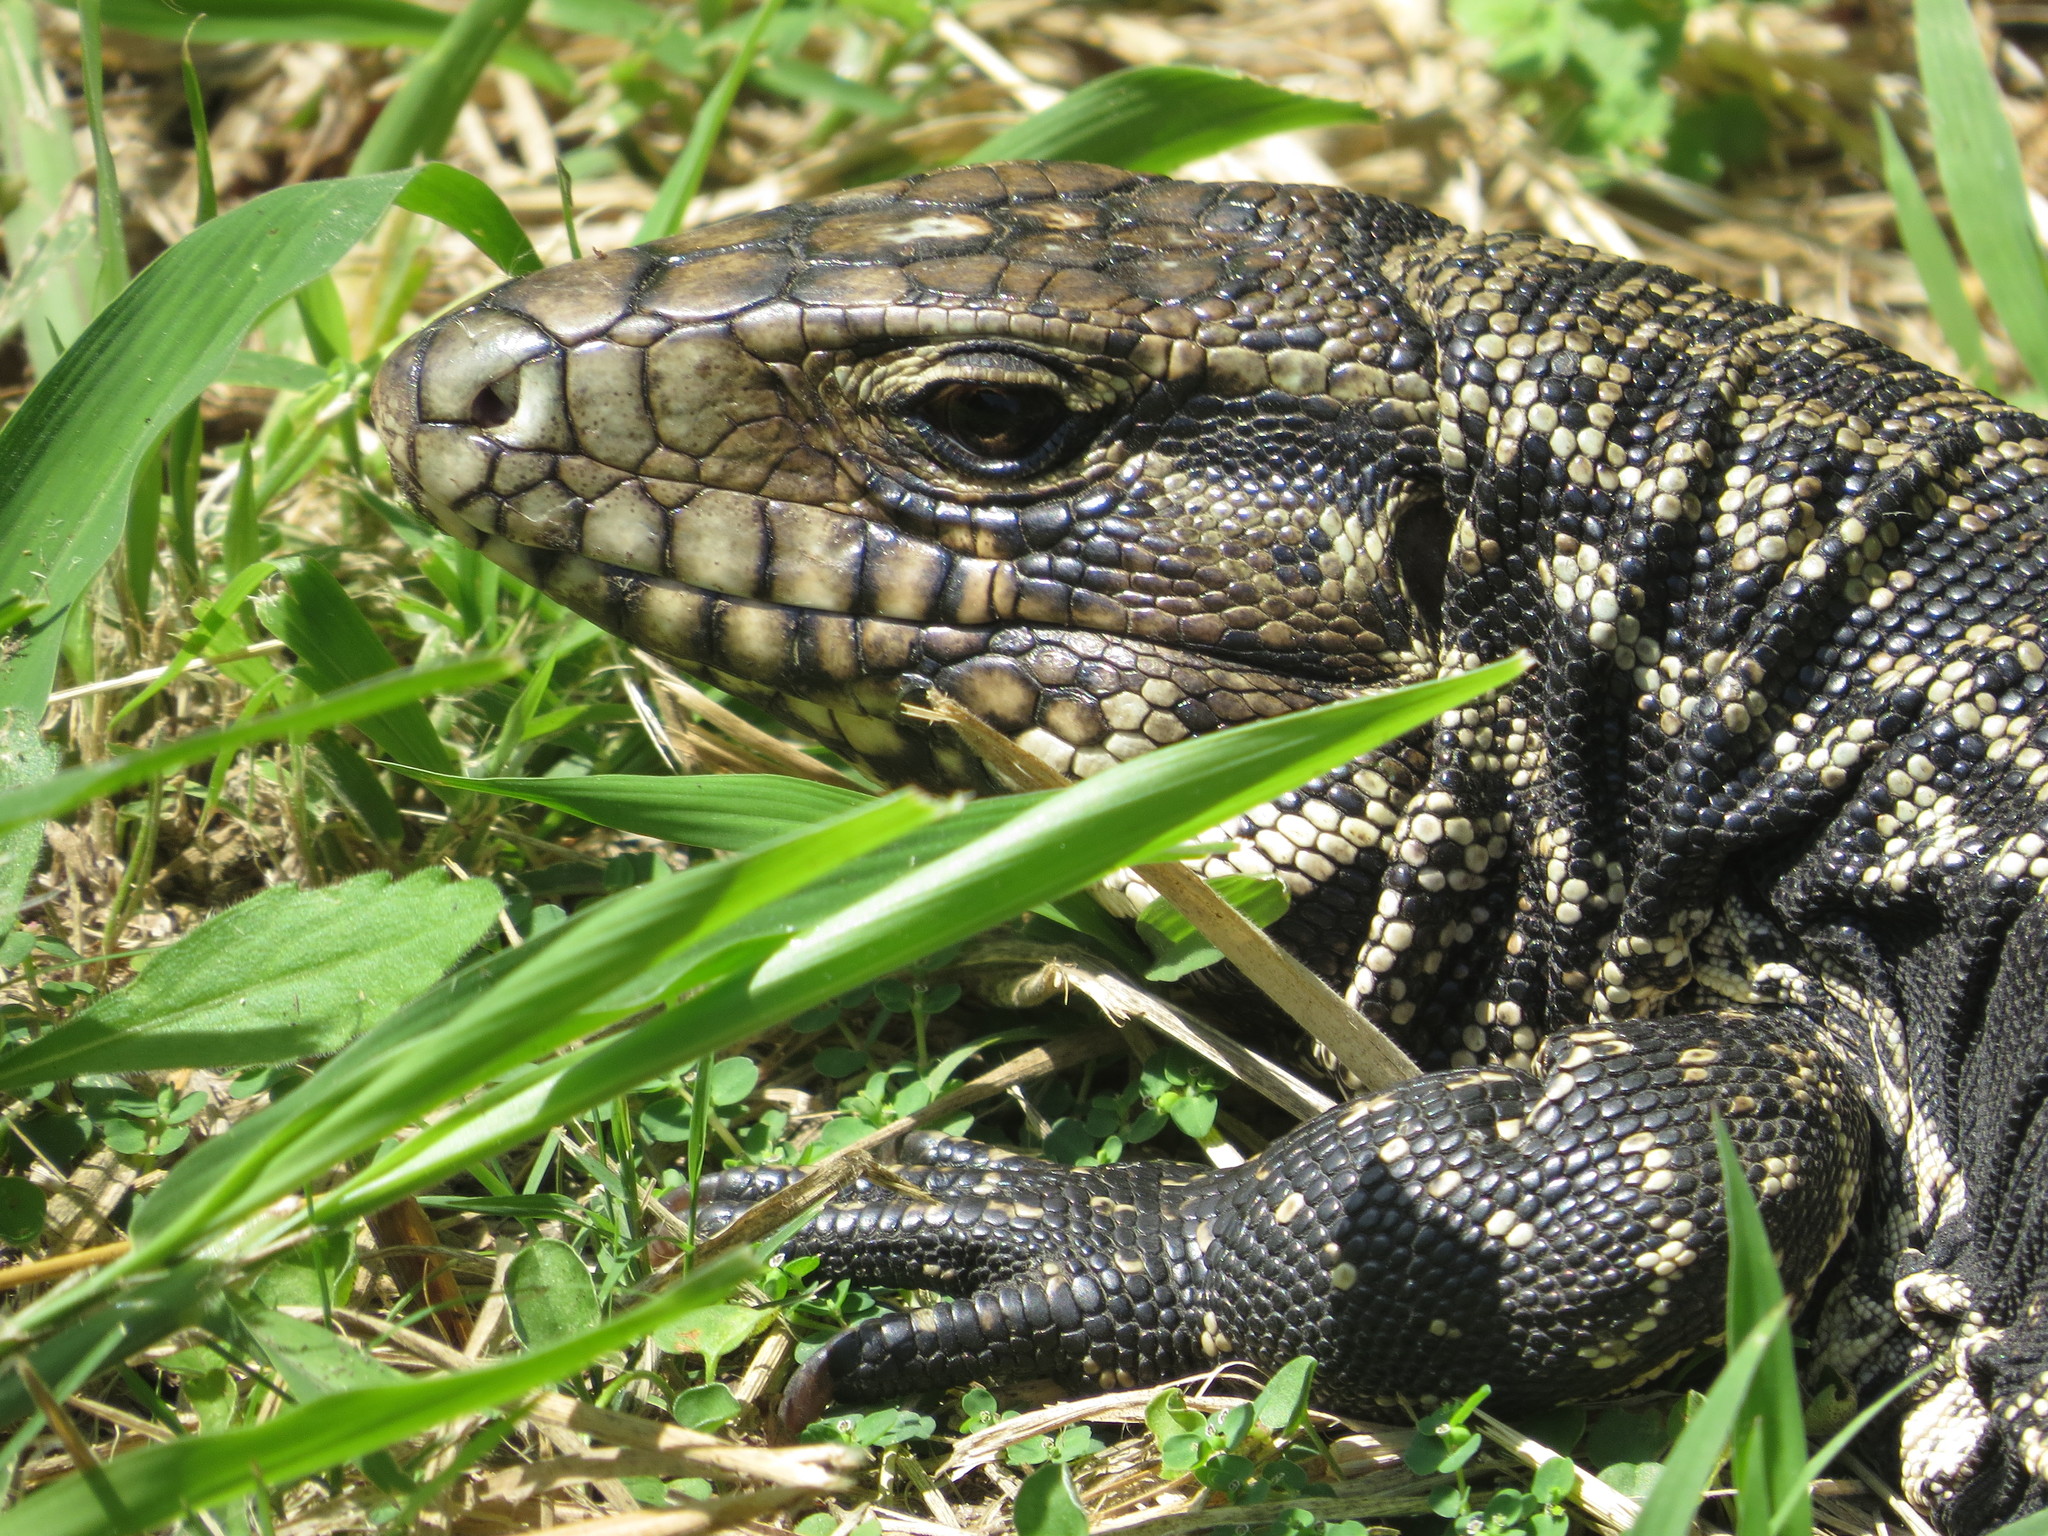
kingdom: Animalia
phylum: Chordata
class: Squamata
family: Teiidae
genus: Salvator
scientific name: Salvator merianae
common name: Argentine black and white tegu
